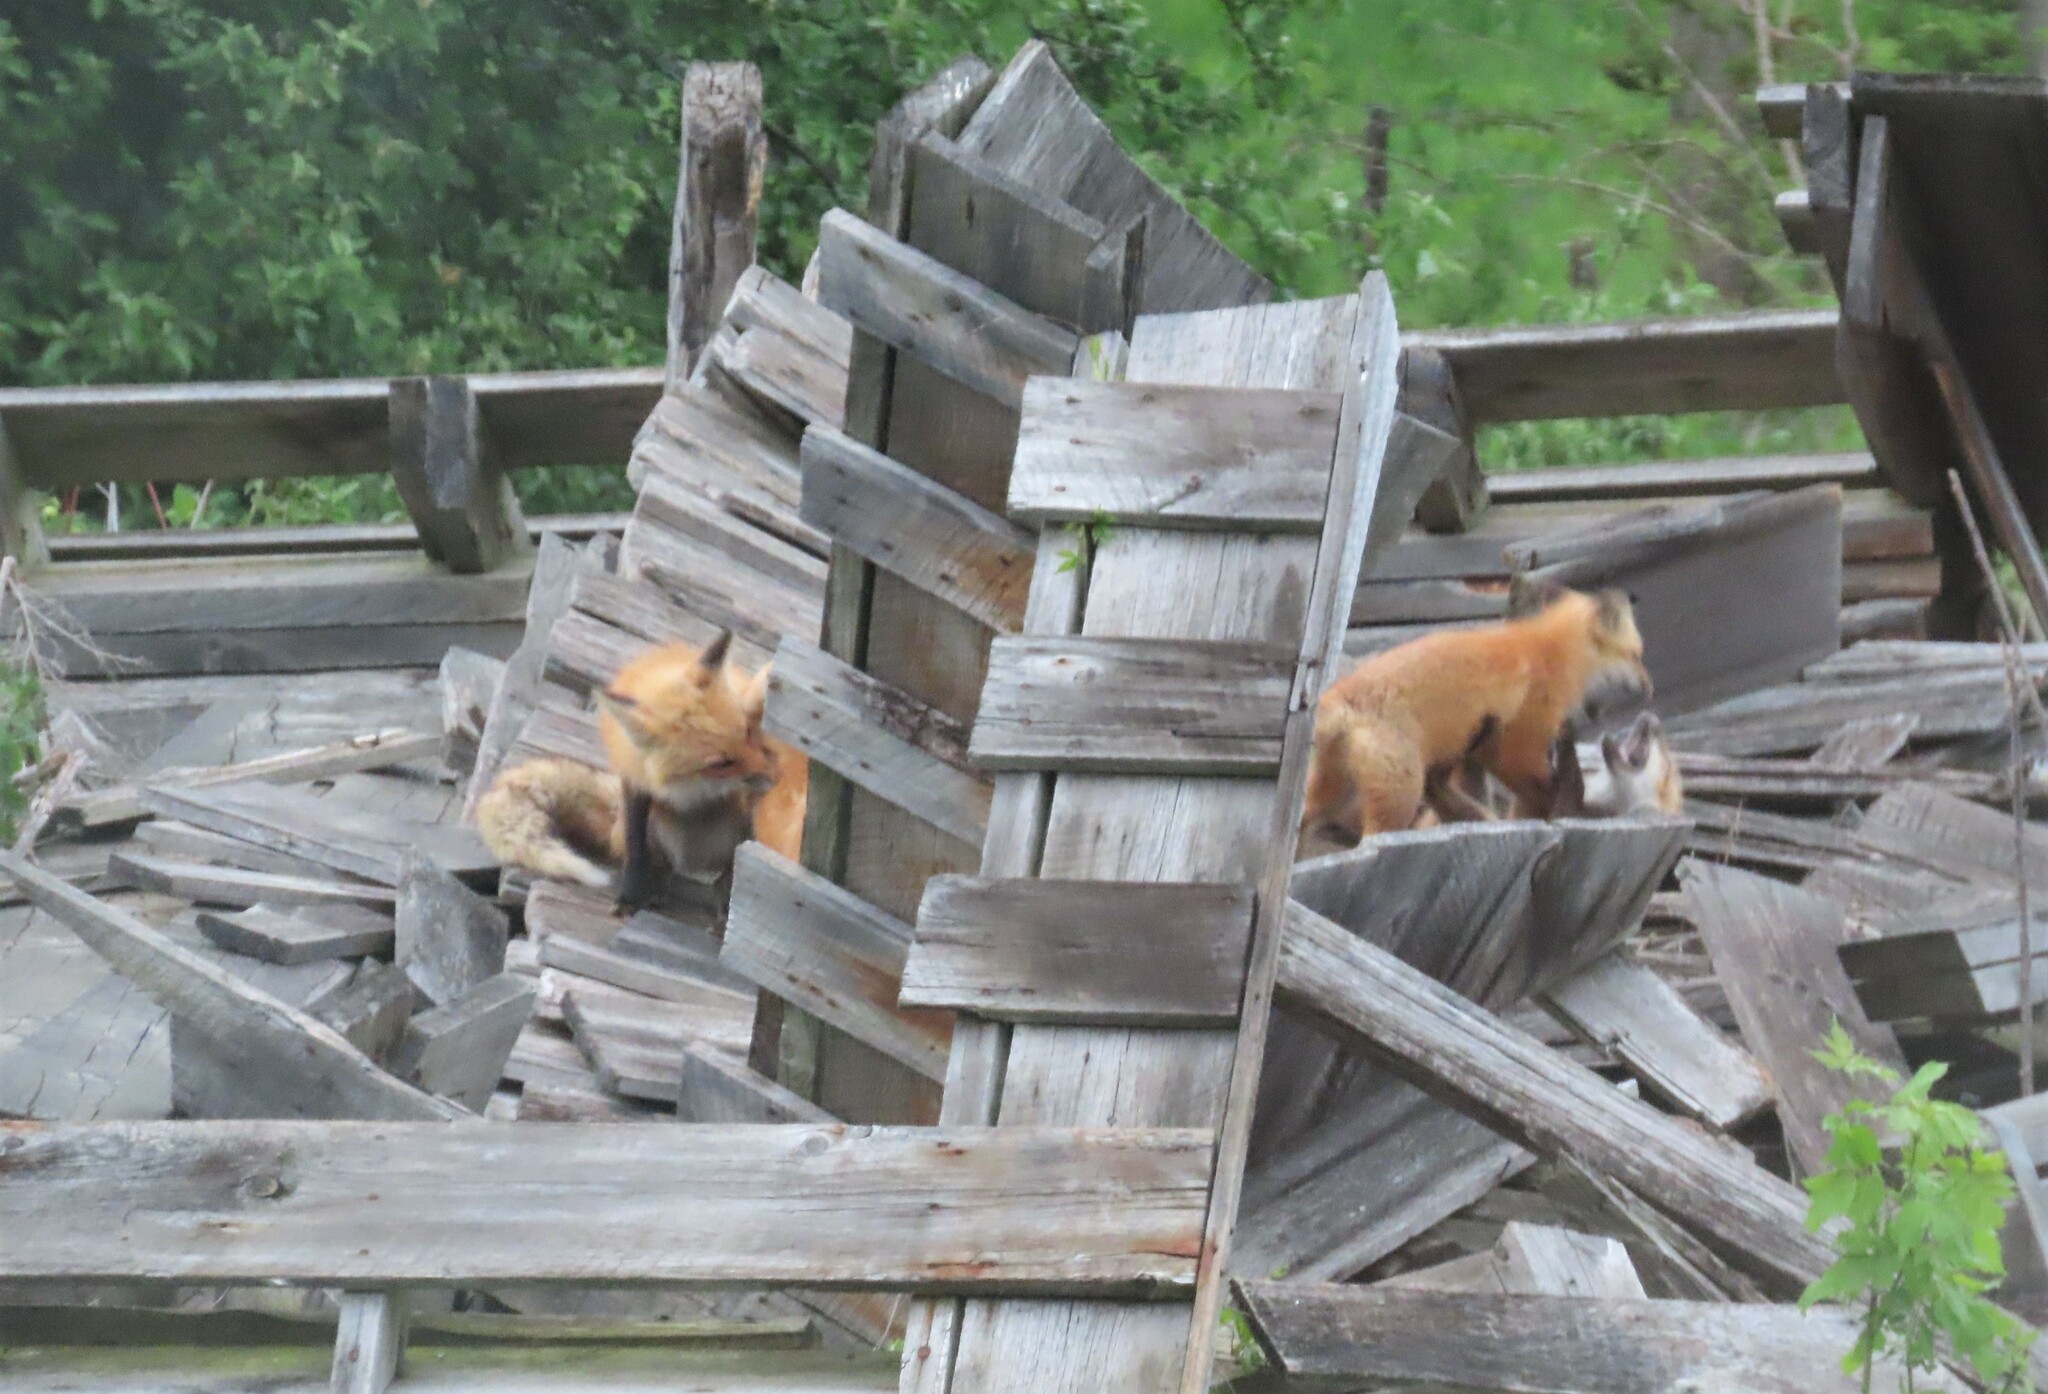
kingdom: Animalia
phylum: Chordata
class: Mammalia
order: Carnivora
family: Canidae
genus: Vulpes
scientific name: Vulpes vulpes
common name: Red fox
